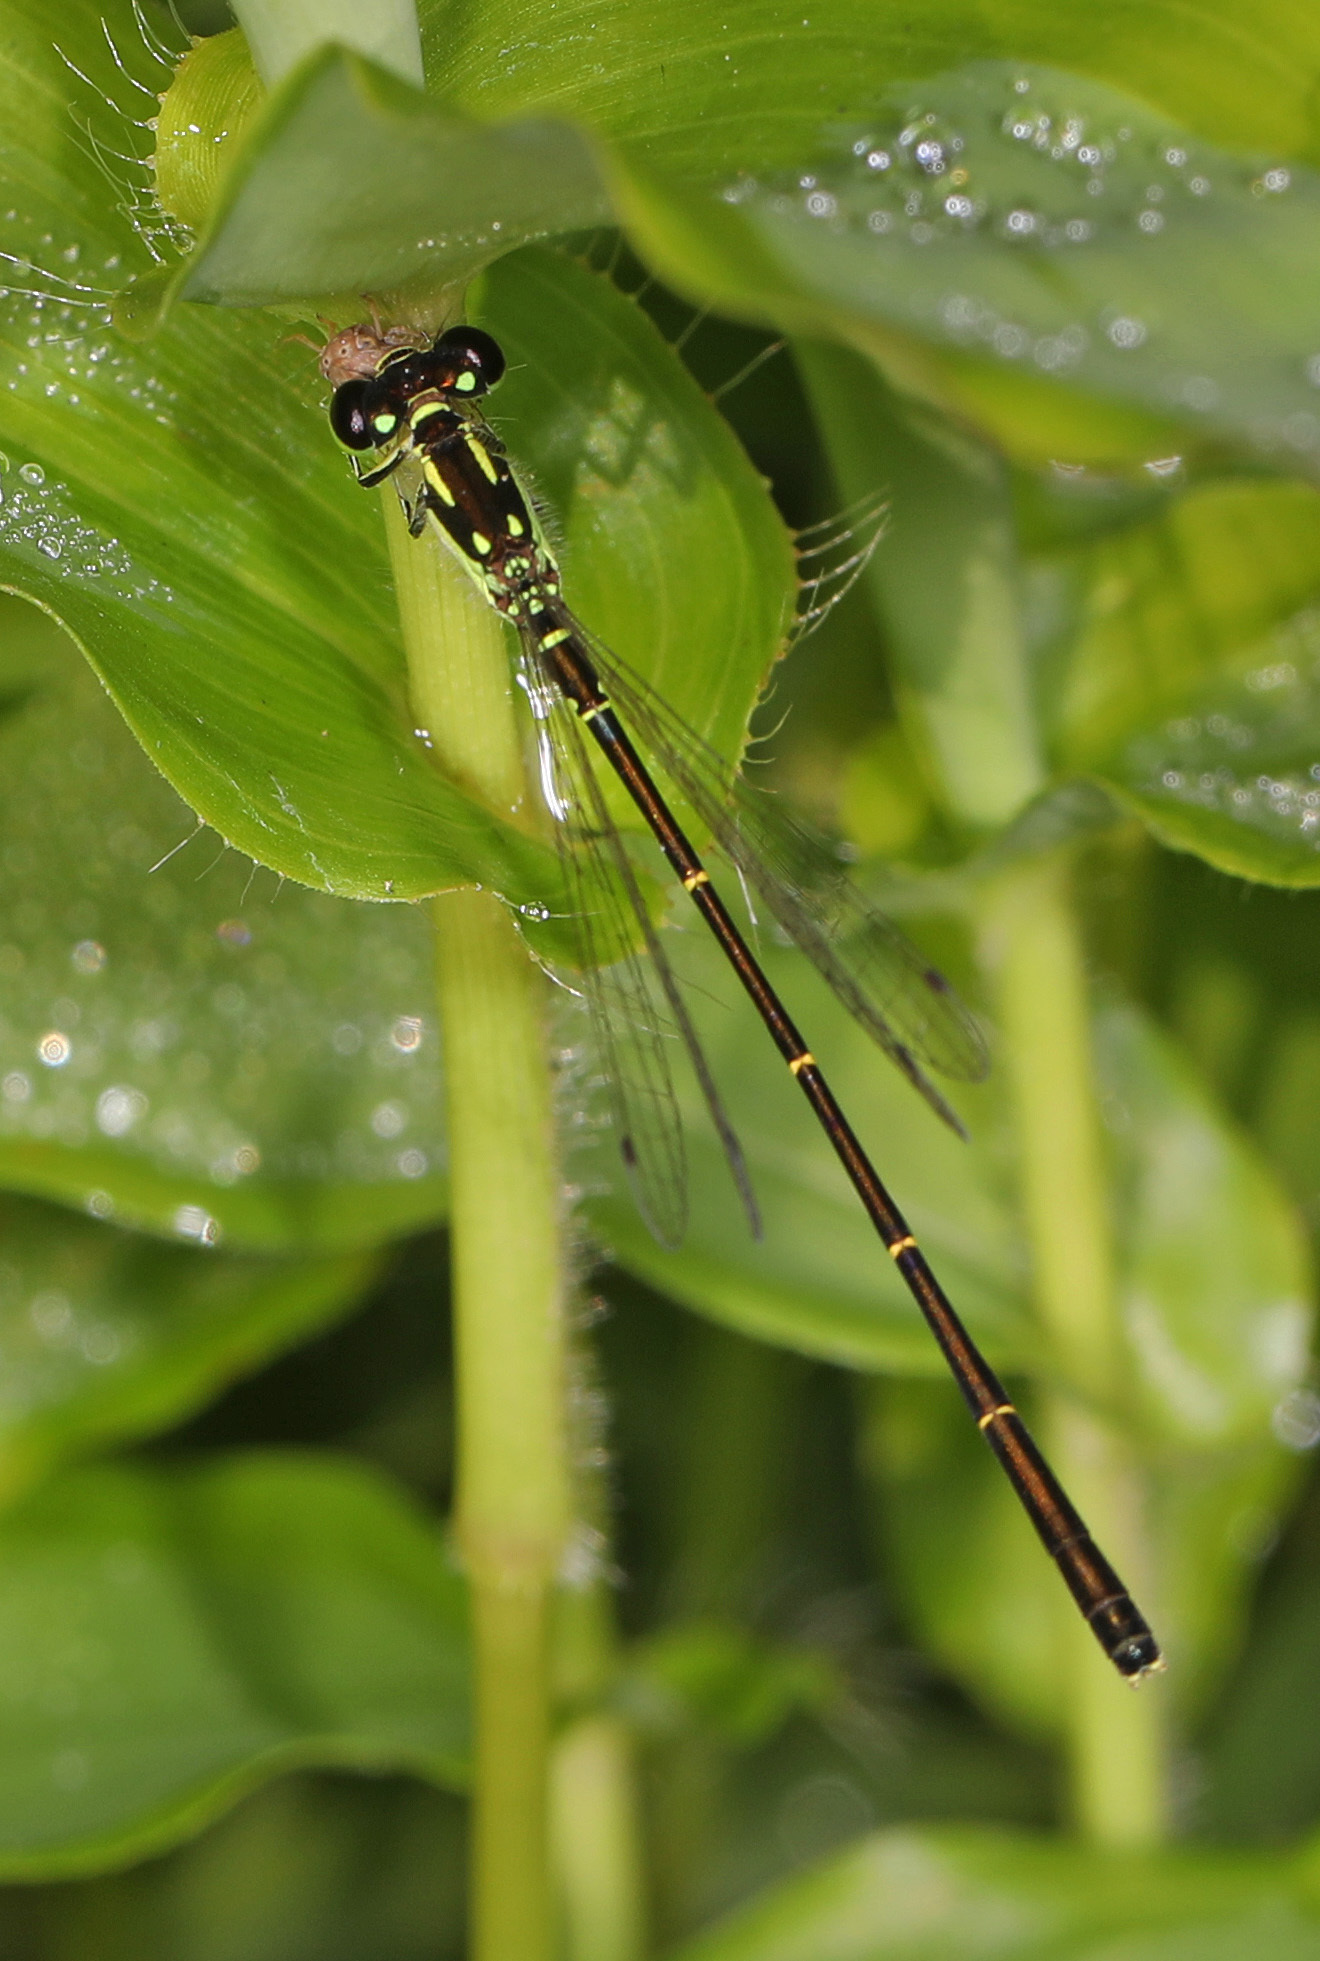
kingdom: Animalia
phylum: Arthropoda
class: Insecta
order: Odonata
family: Coenagrionidae
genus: Ischnura
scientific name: Ischnura posita
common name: Fragile forktail
